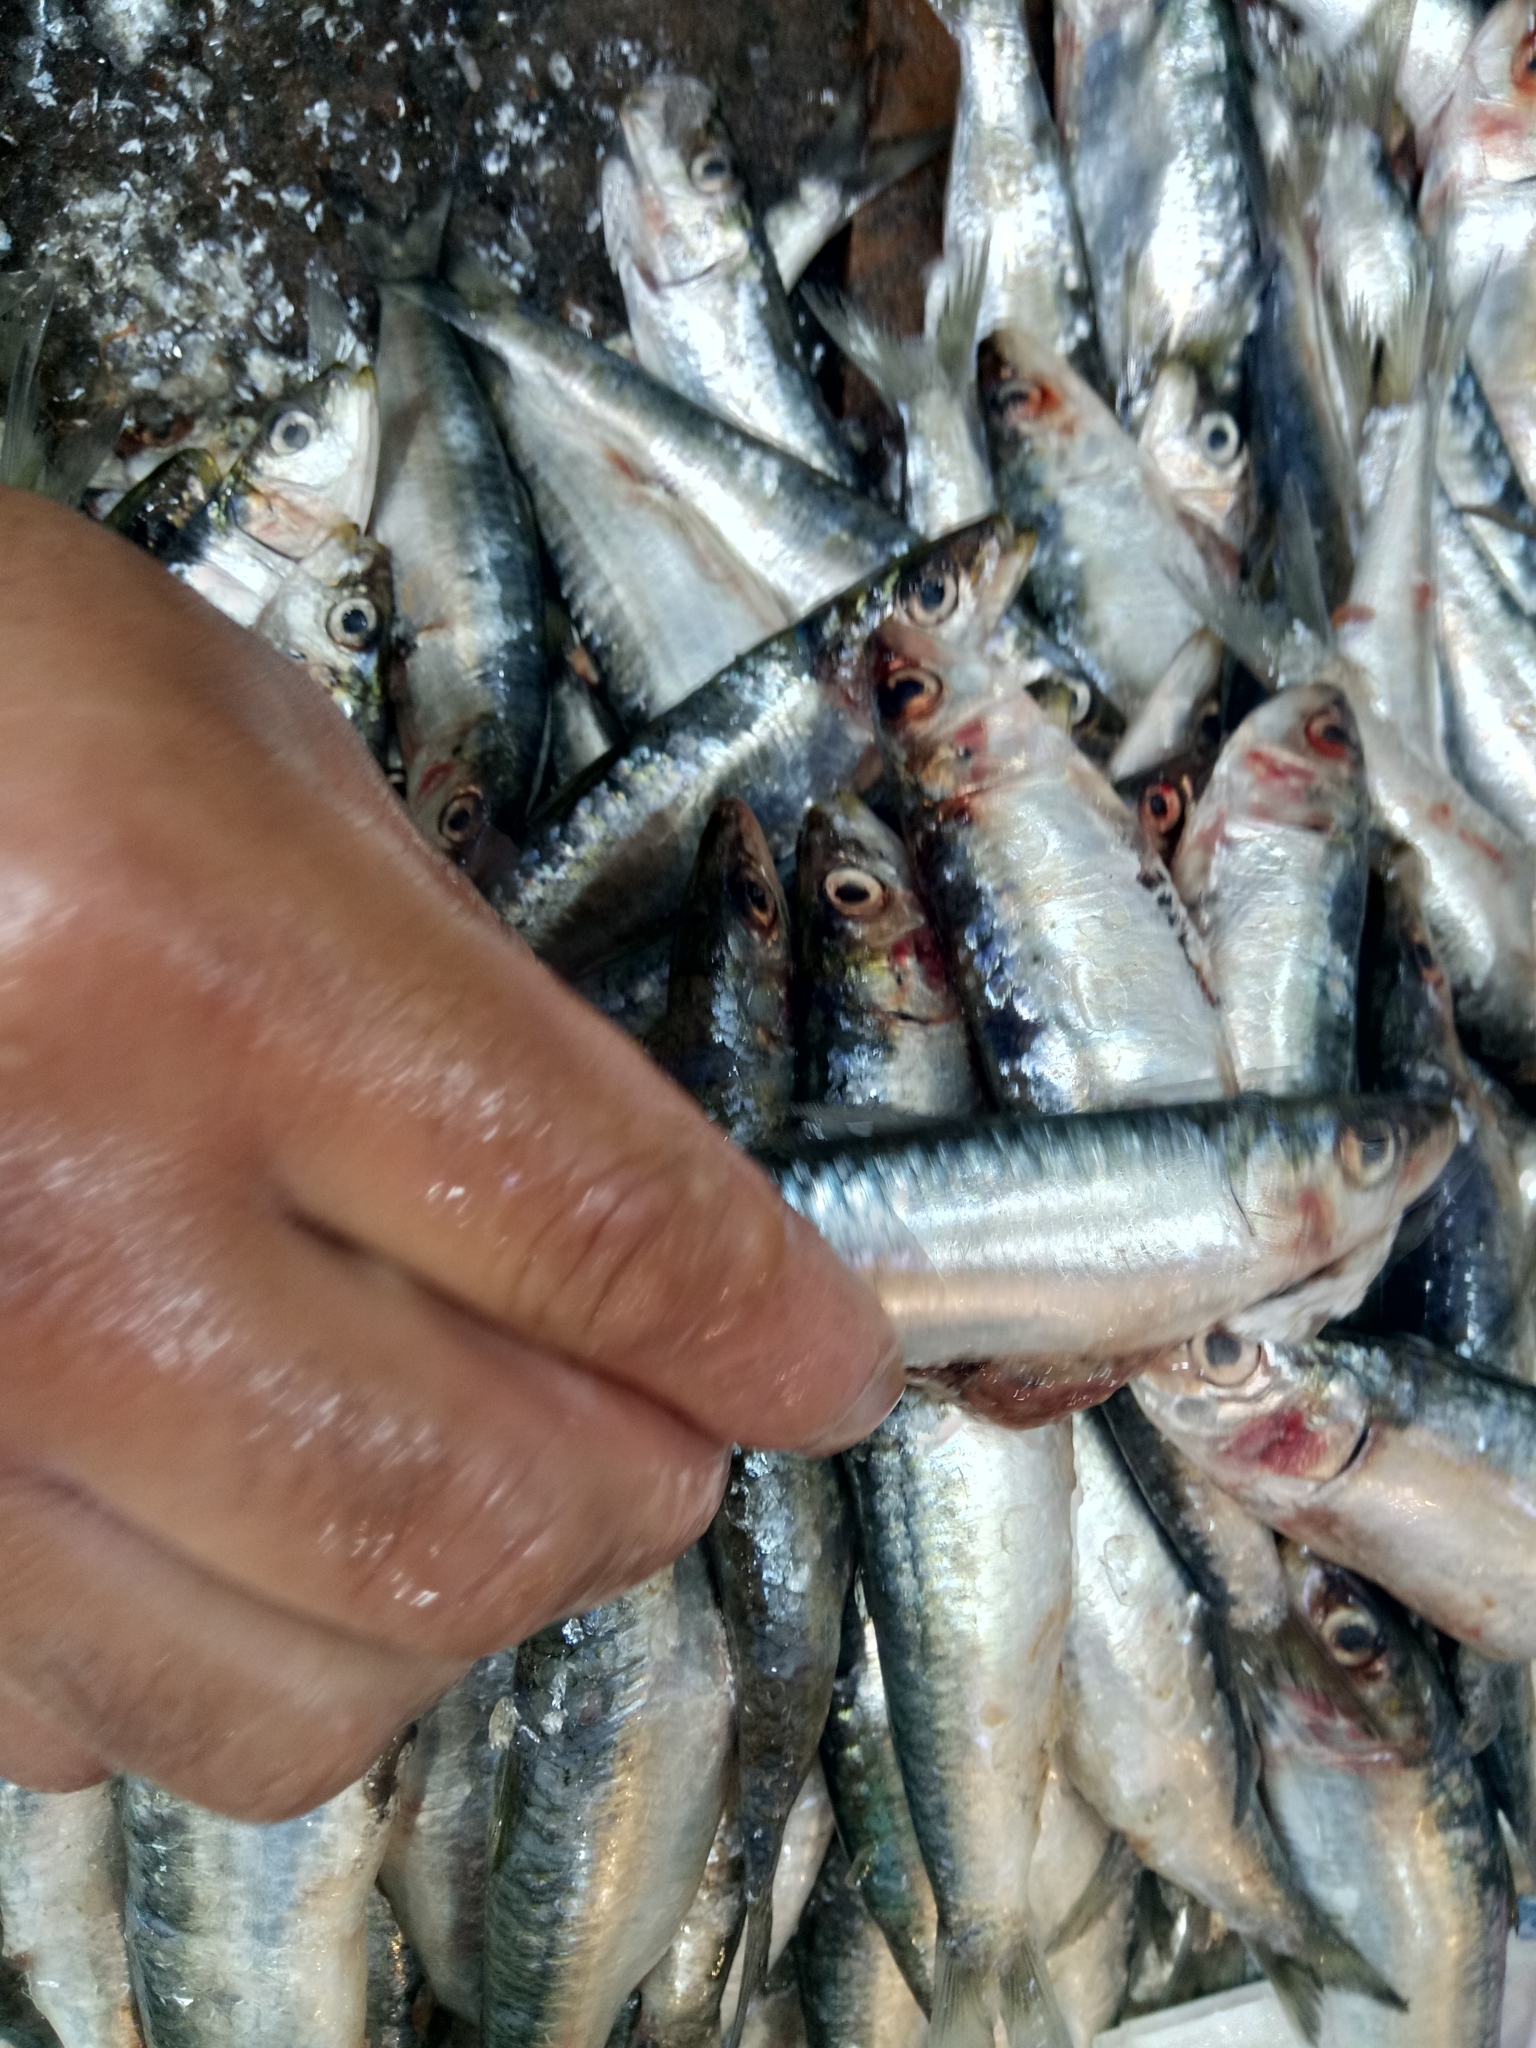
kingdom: Animalia
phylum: Chordata
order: Clupeiformes
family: Clupeidae
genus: Sardina
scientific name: Sardina pilchardus
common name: Pilchard
